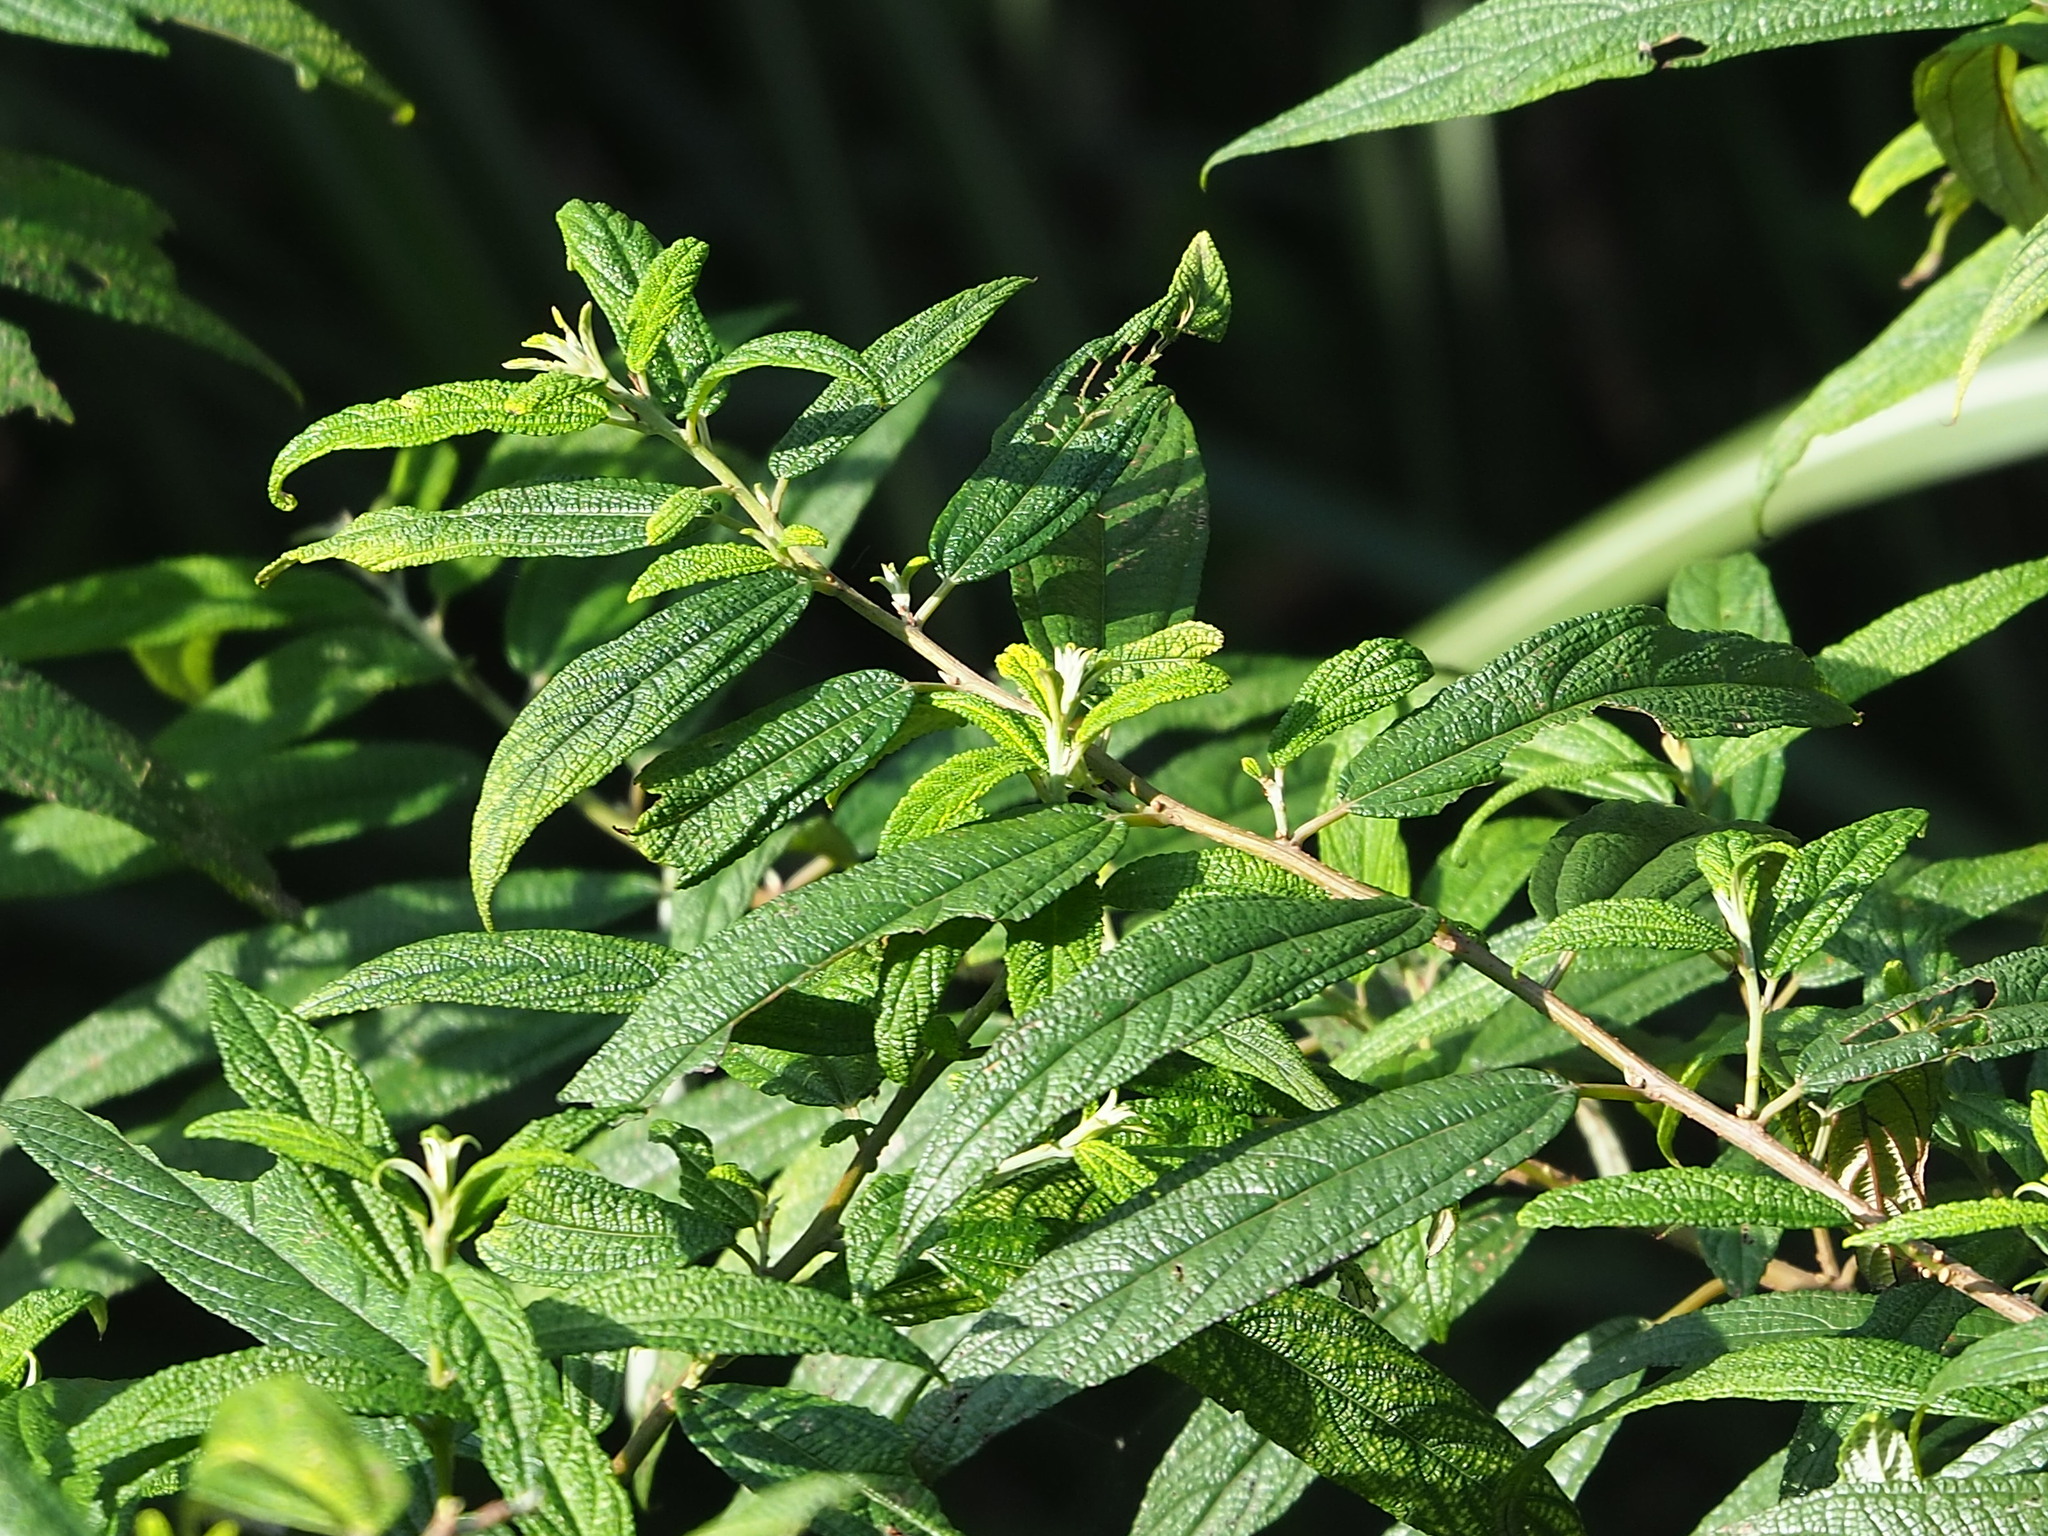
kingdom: Plantae
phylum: Tracheophyta
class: Magnoliopsida
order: Rosales
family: Urticaceae
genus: Debregeasia
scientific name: Debregeasia orientalis
